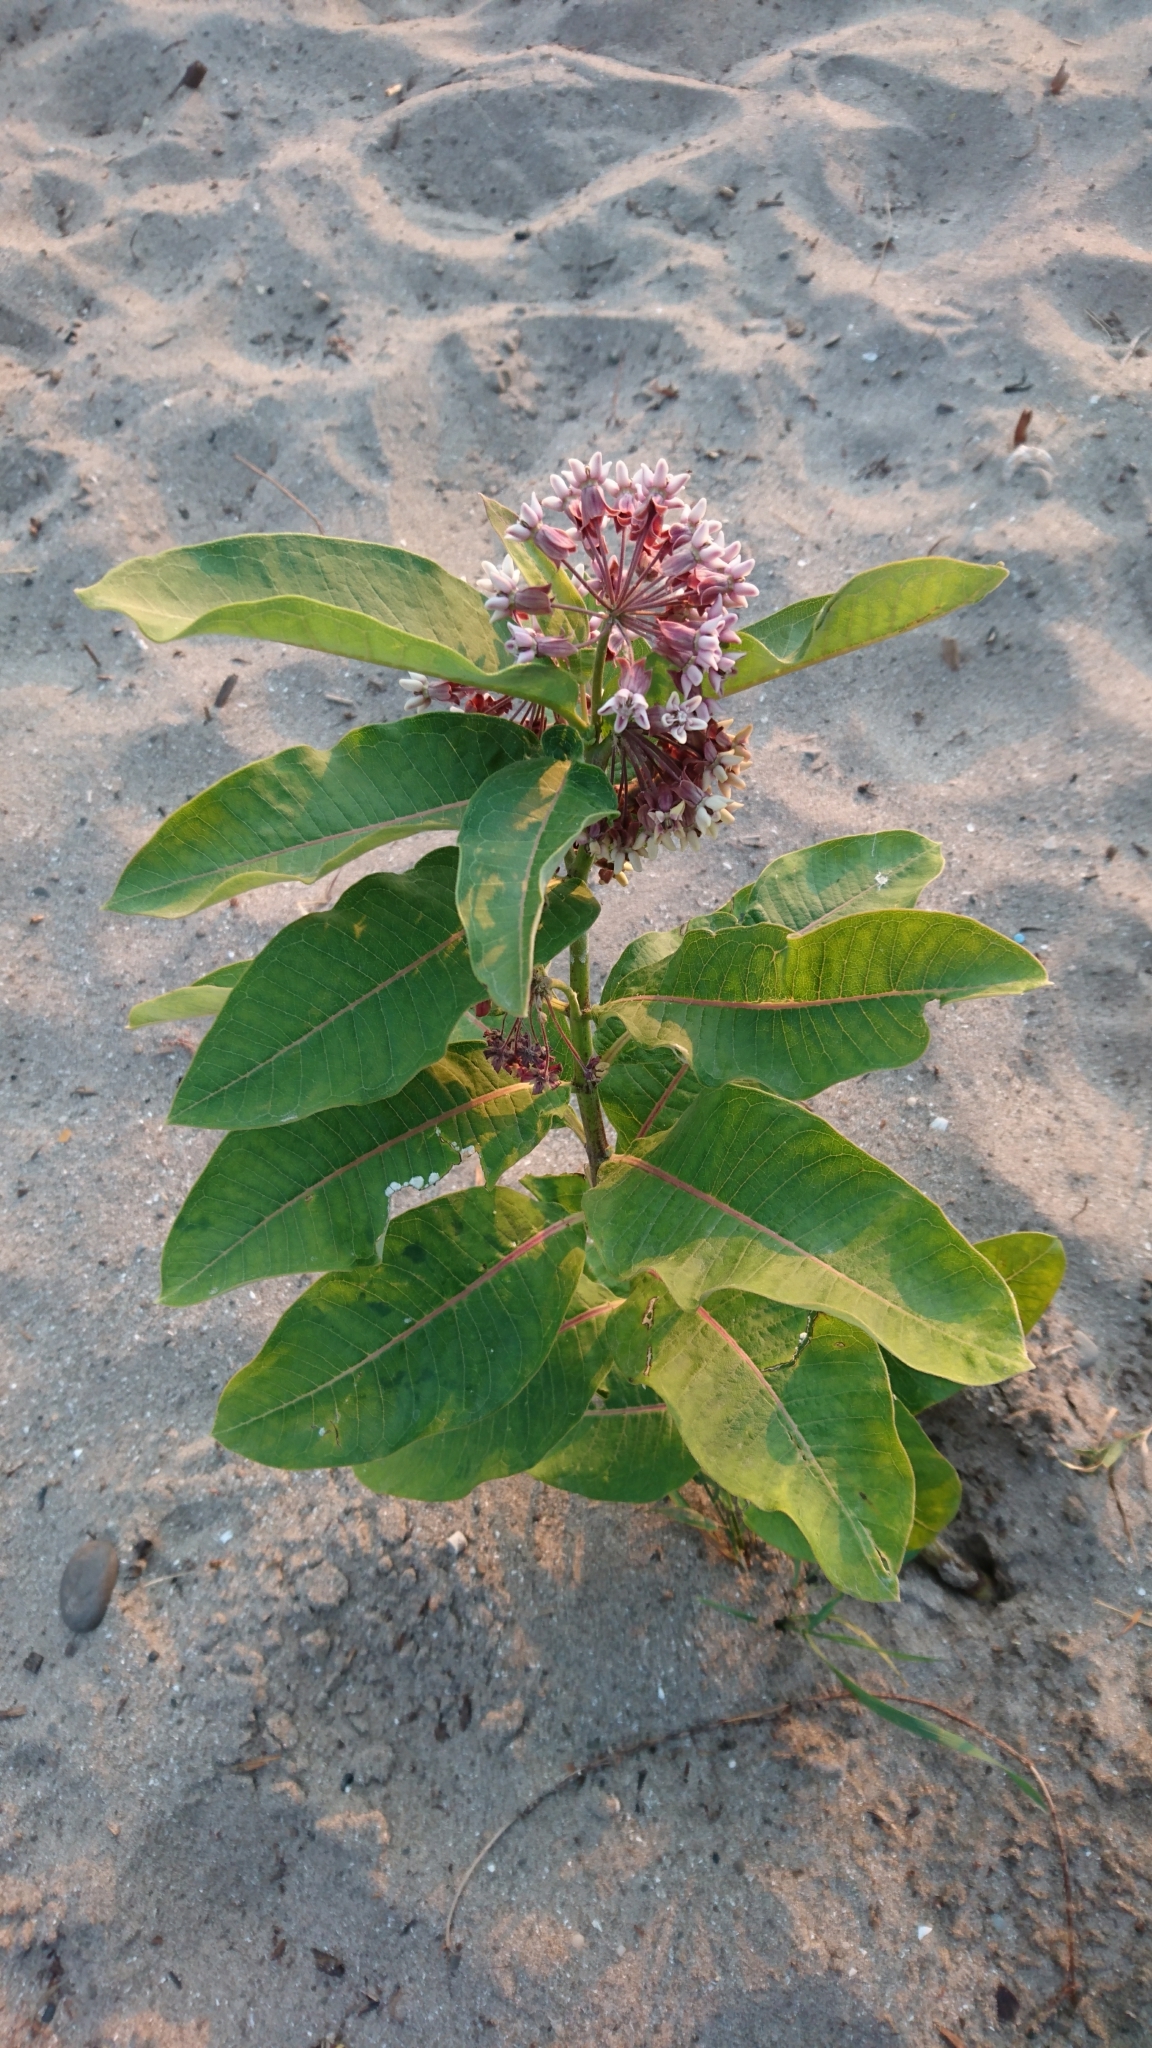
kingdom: Plantae
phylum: Tracheophyta
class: Magnoliopsida
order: Gentianales
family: Apocynaceae
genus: Asclepias
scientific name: Asclepias syriaca
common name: Common milkweed
